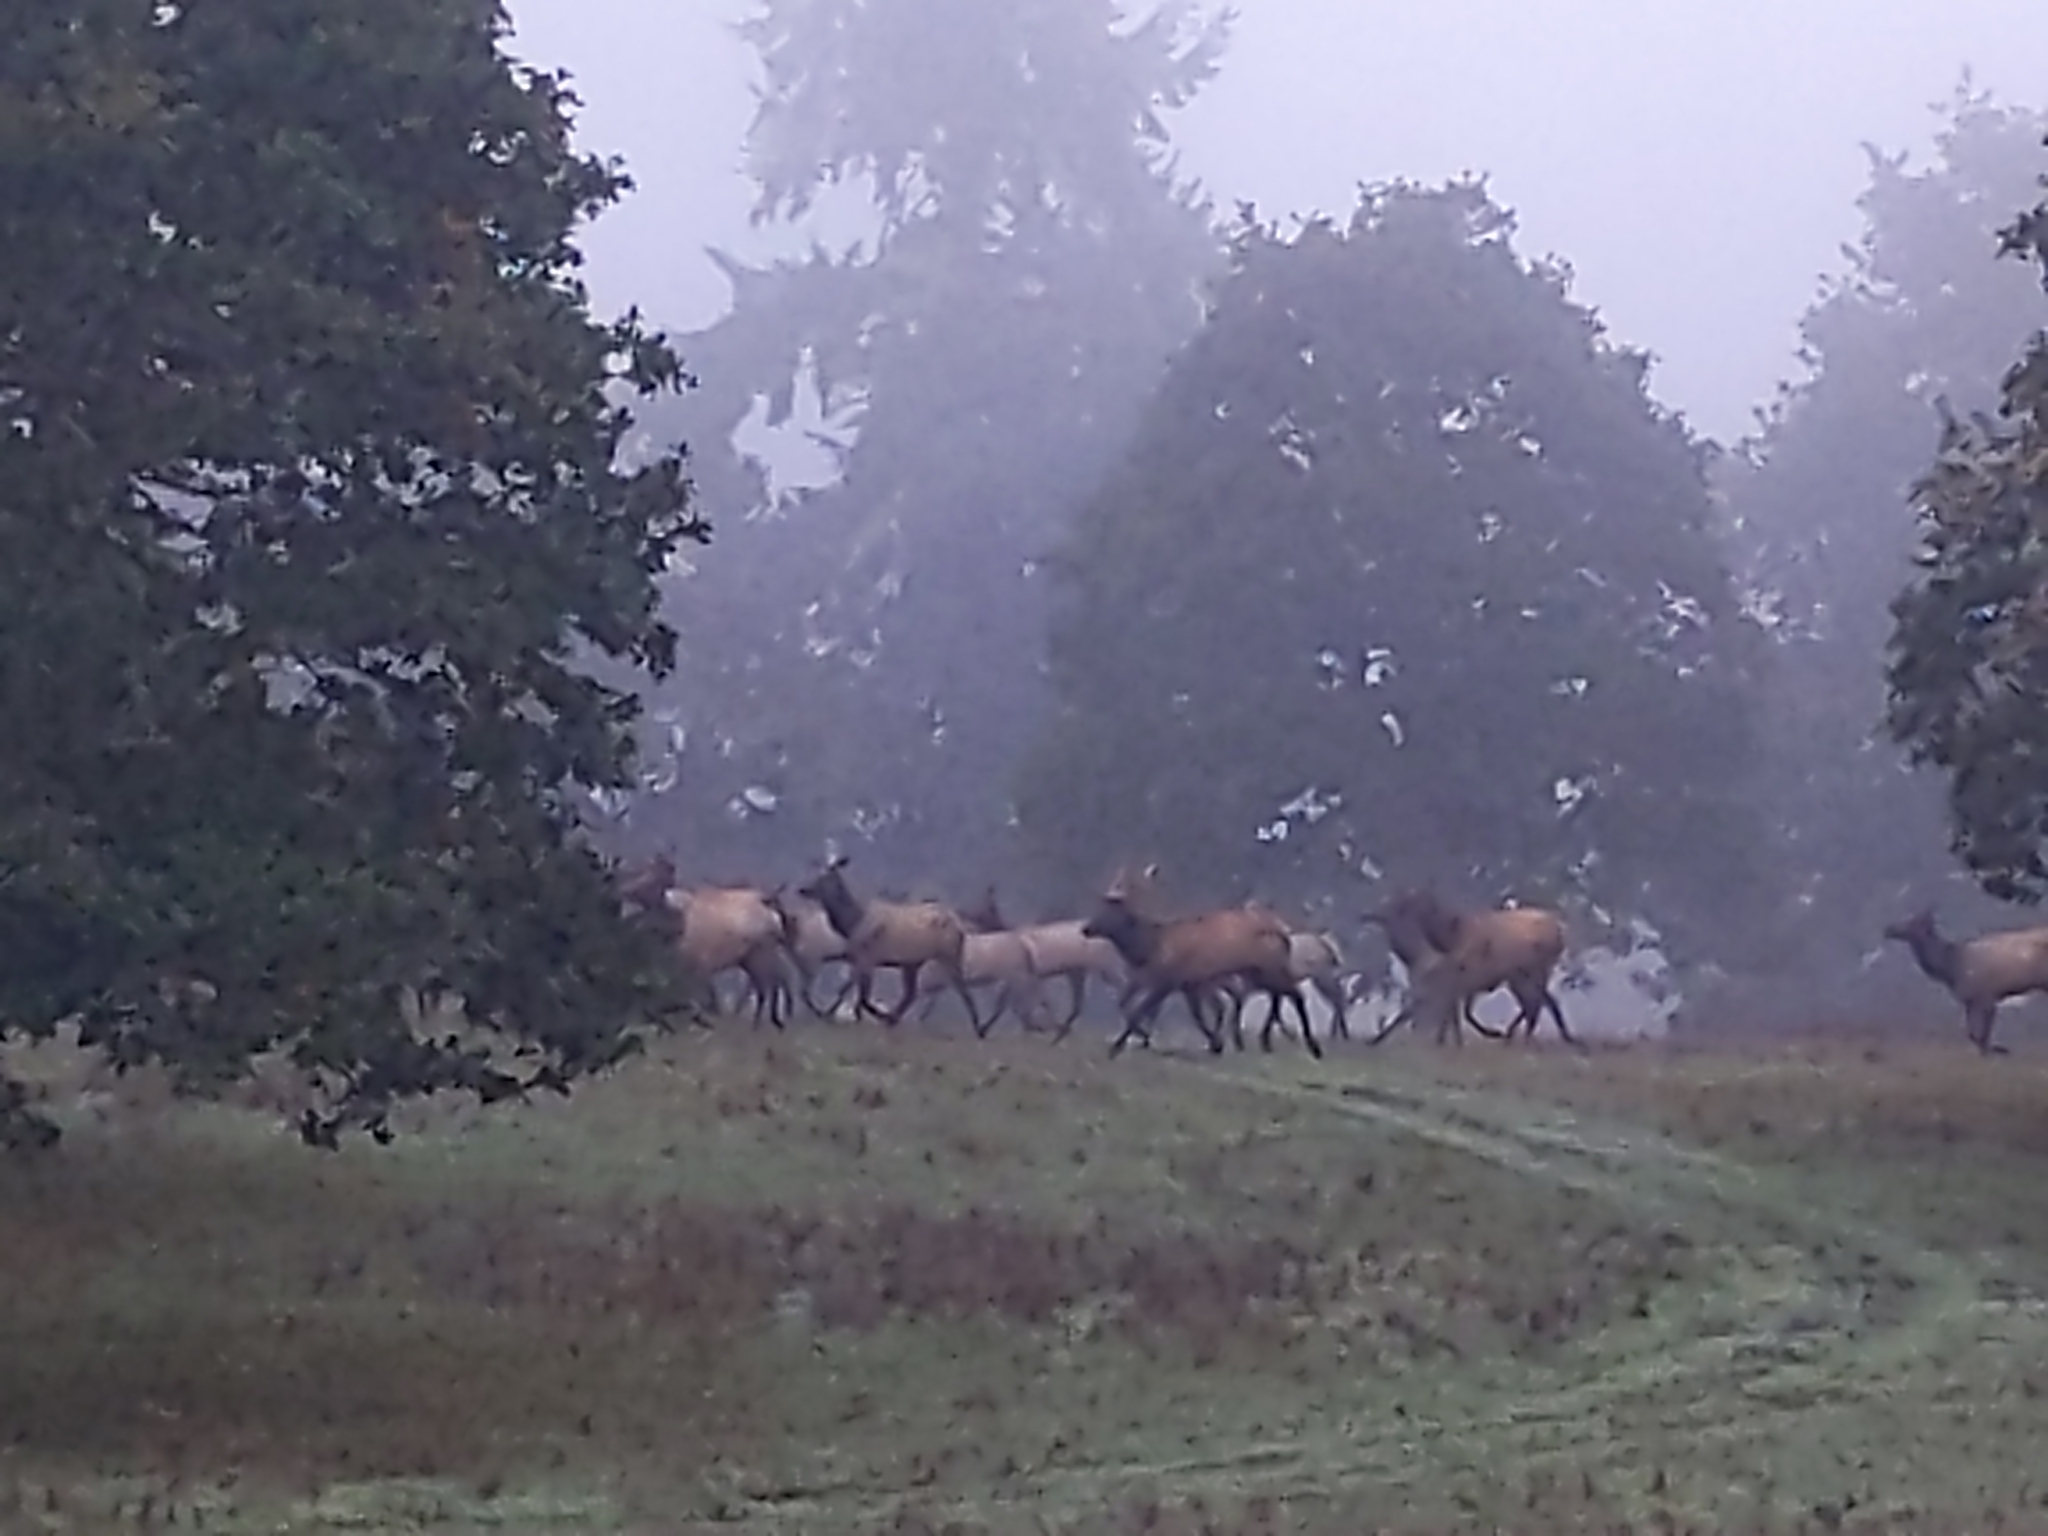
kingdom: Animalia
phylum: Chordata
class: Mammalia
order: Artiodactyla
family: Cervidae
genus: Cervus
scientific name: Cervus elaphus
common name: Red deer
